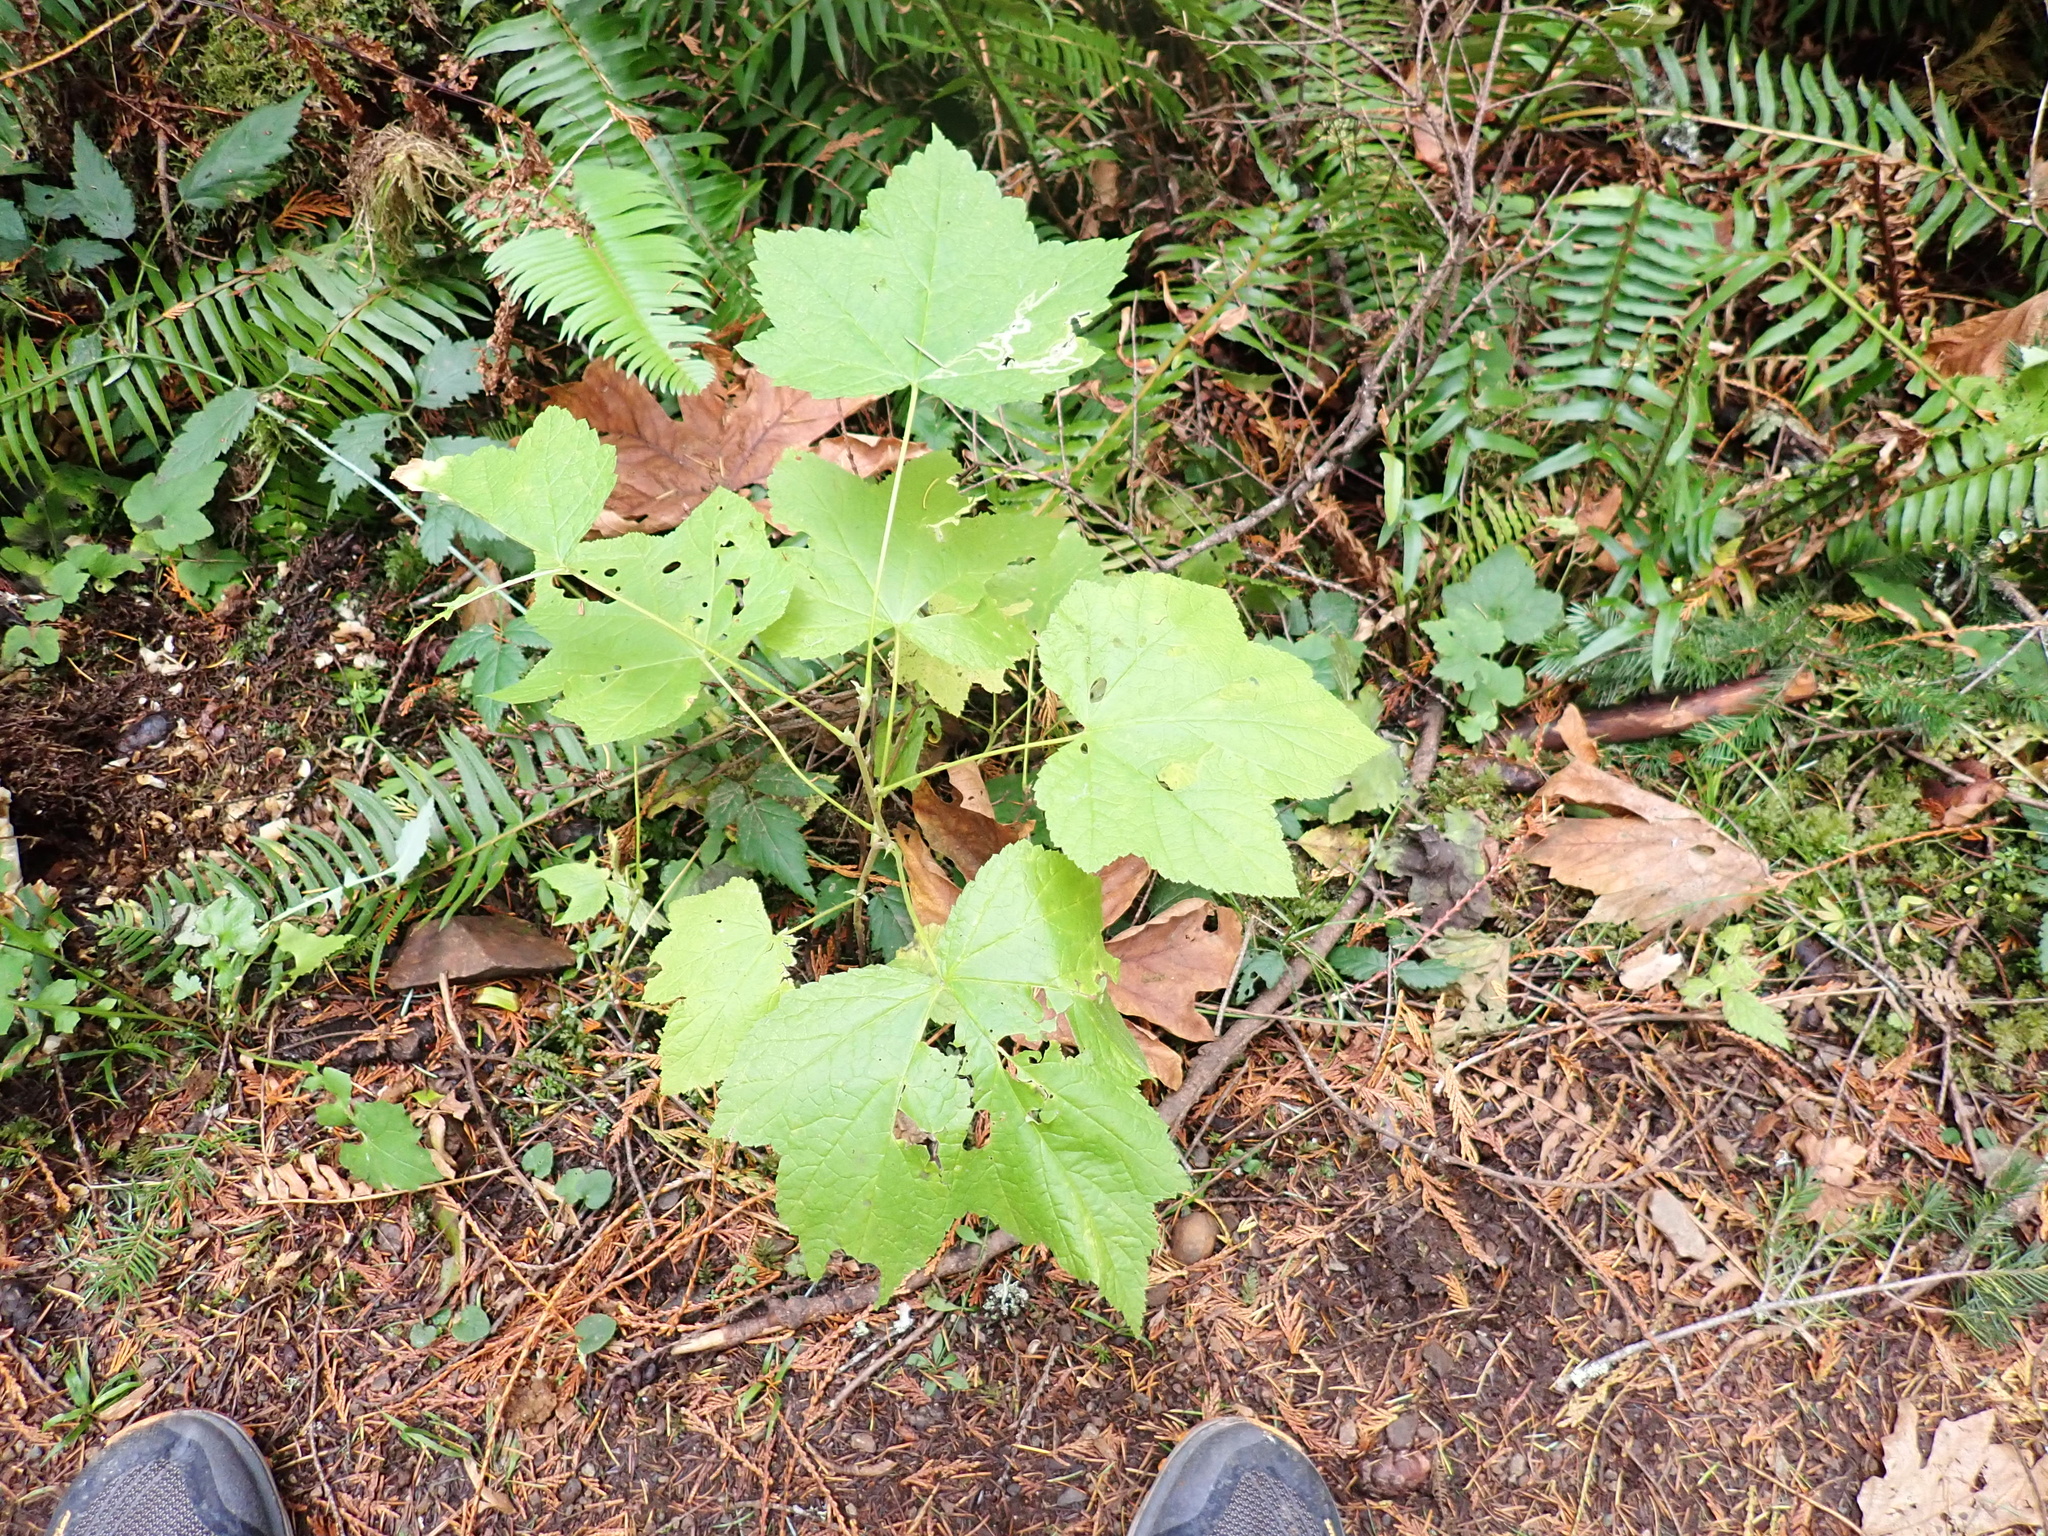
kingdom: Plantae
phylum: Tracheophyta
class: Magnoliopsida
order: Rosales
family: Rosaceae
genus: Rubus
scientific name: Rubus parviflorus
